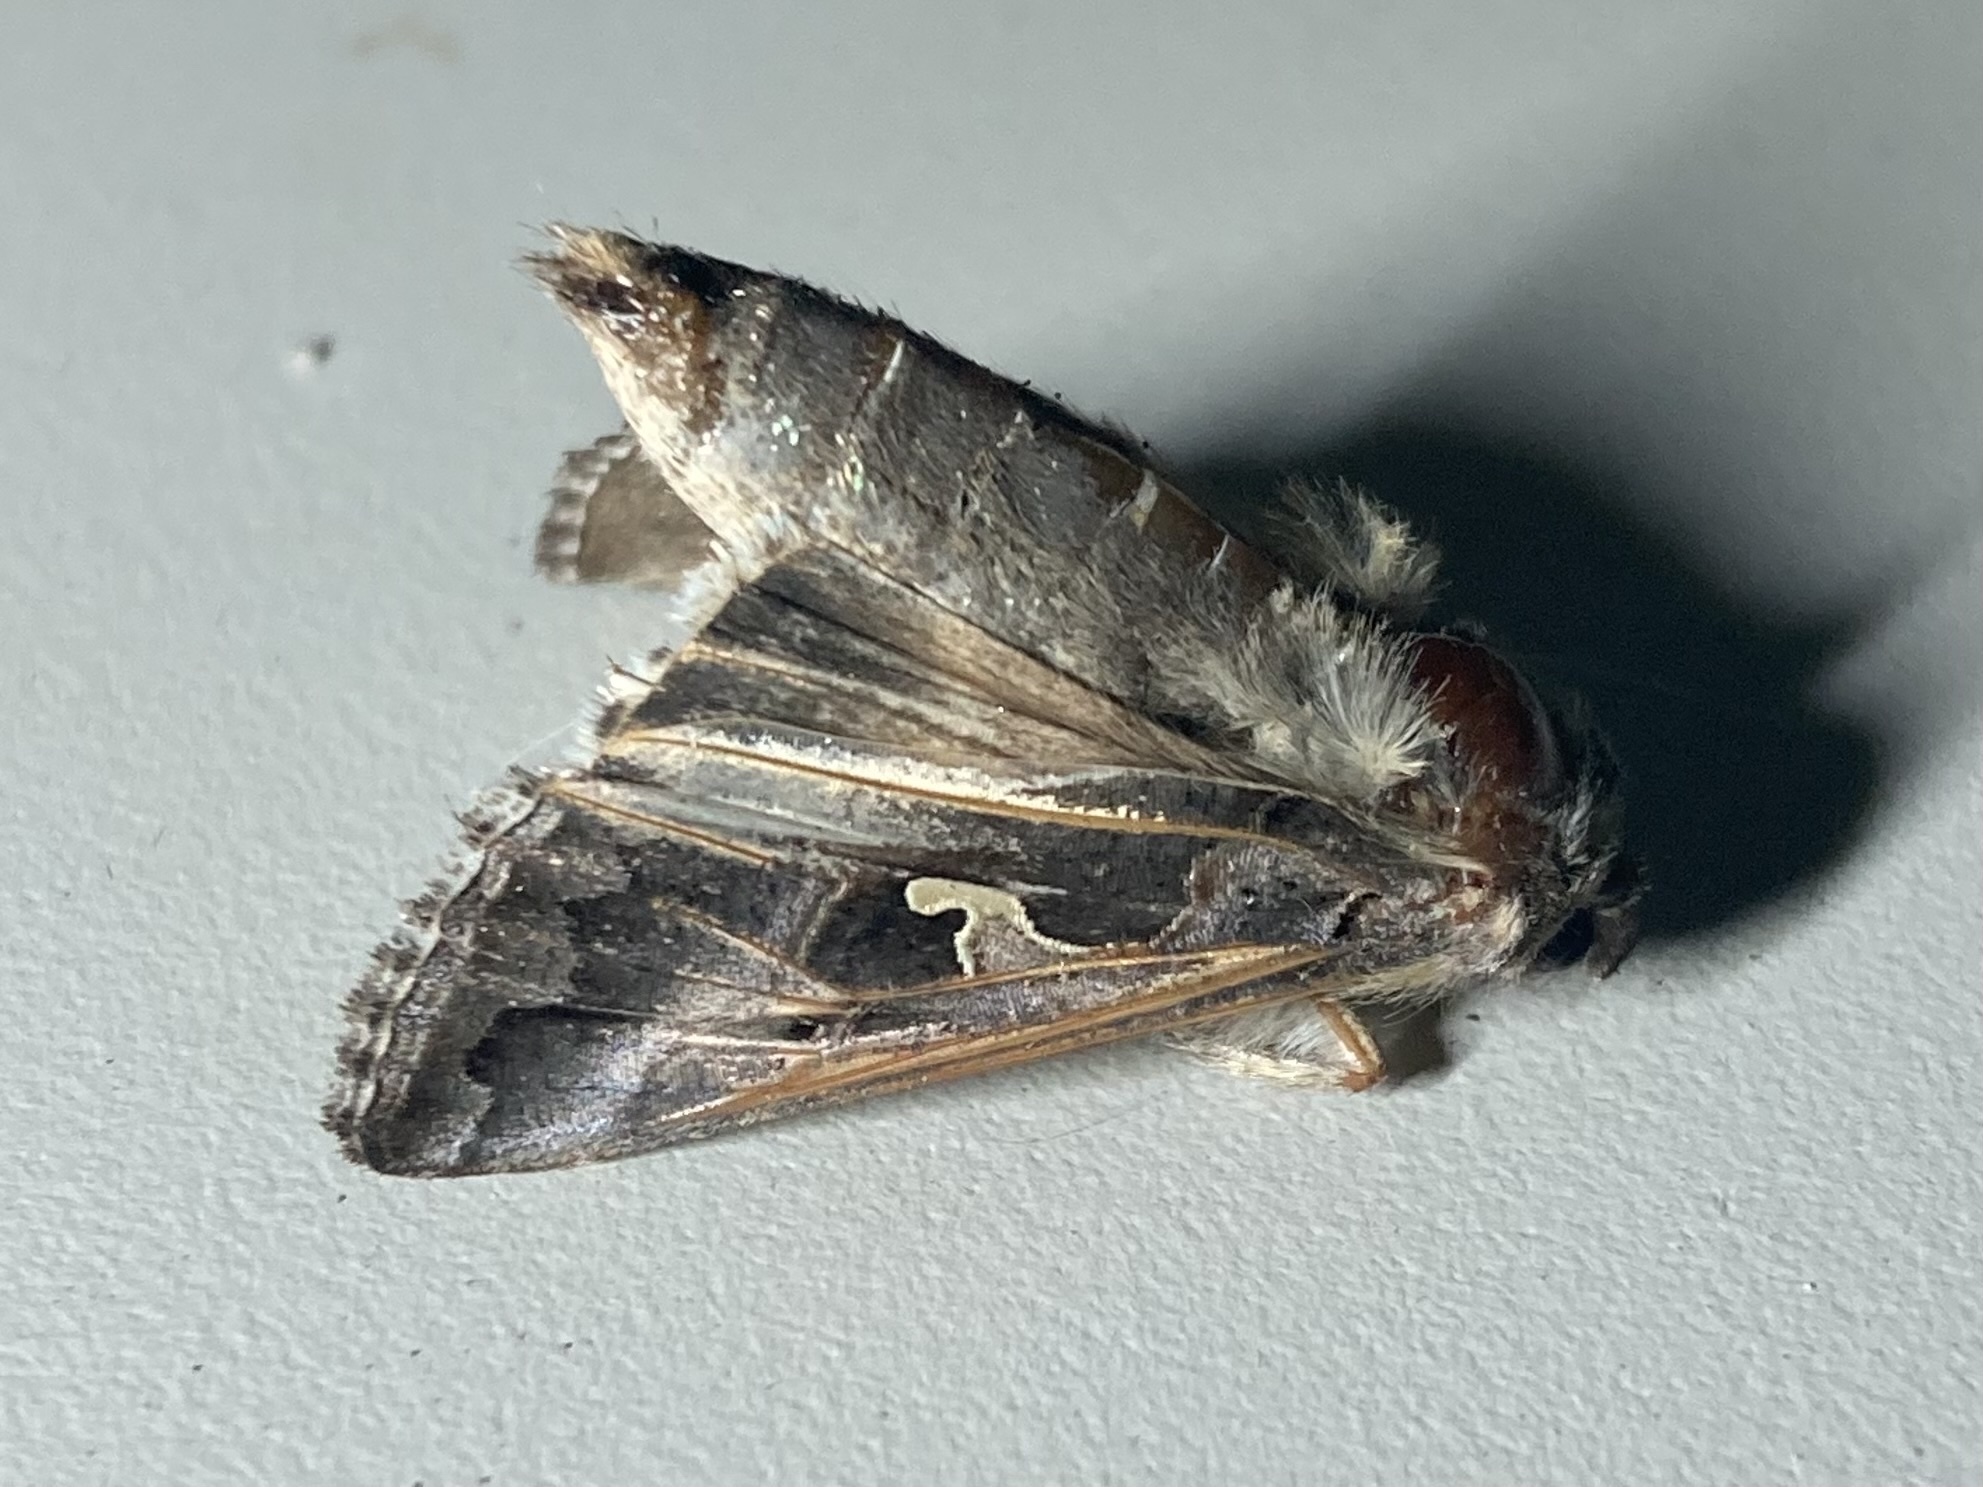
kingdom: Animalia
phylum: Arthropoda
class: Insecta
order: Lepidoptera
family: Noctuidae
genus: Autographa
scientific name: Autographa gamma
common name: Silver y
